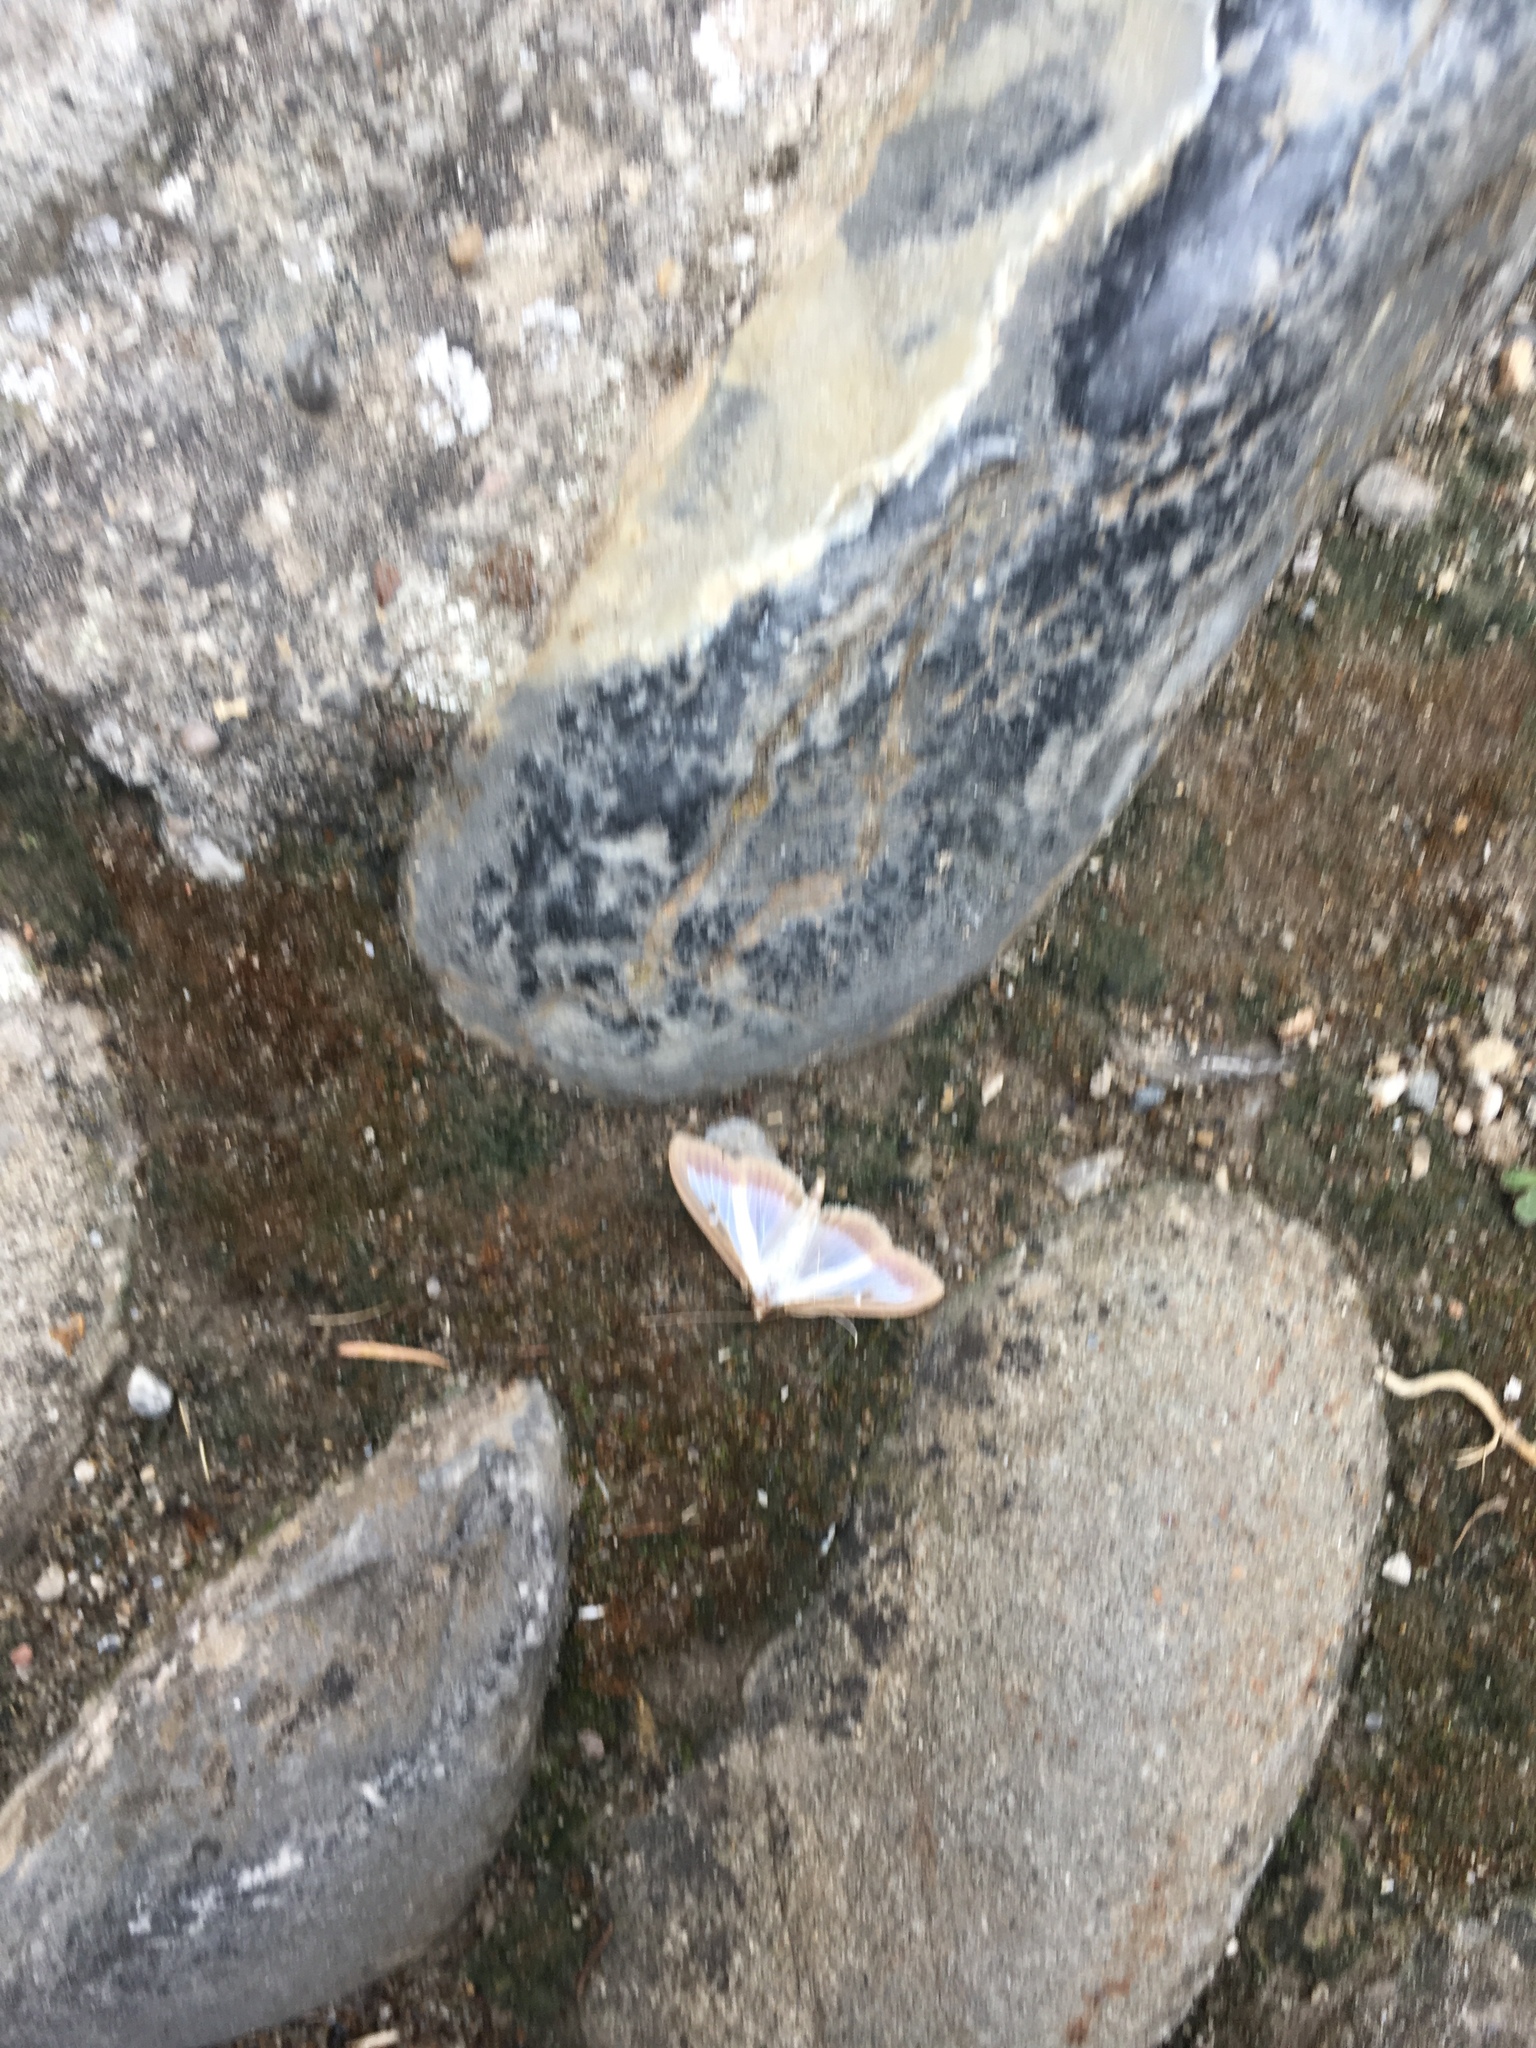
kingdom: Animalia
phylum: Arthropoda
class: Insecta
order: Lepidoptera
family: Crambidae
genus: Cydalima
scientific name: Cydalima perspectalis
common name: Box tree moth
